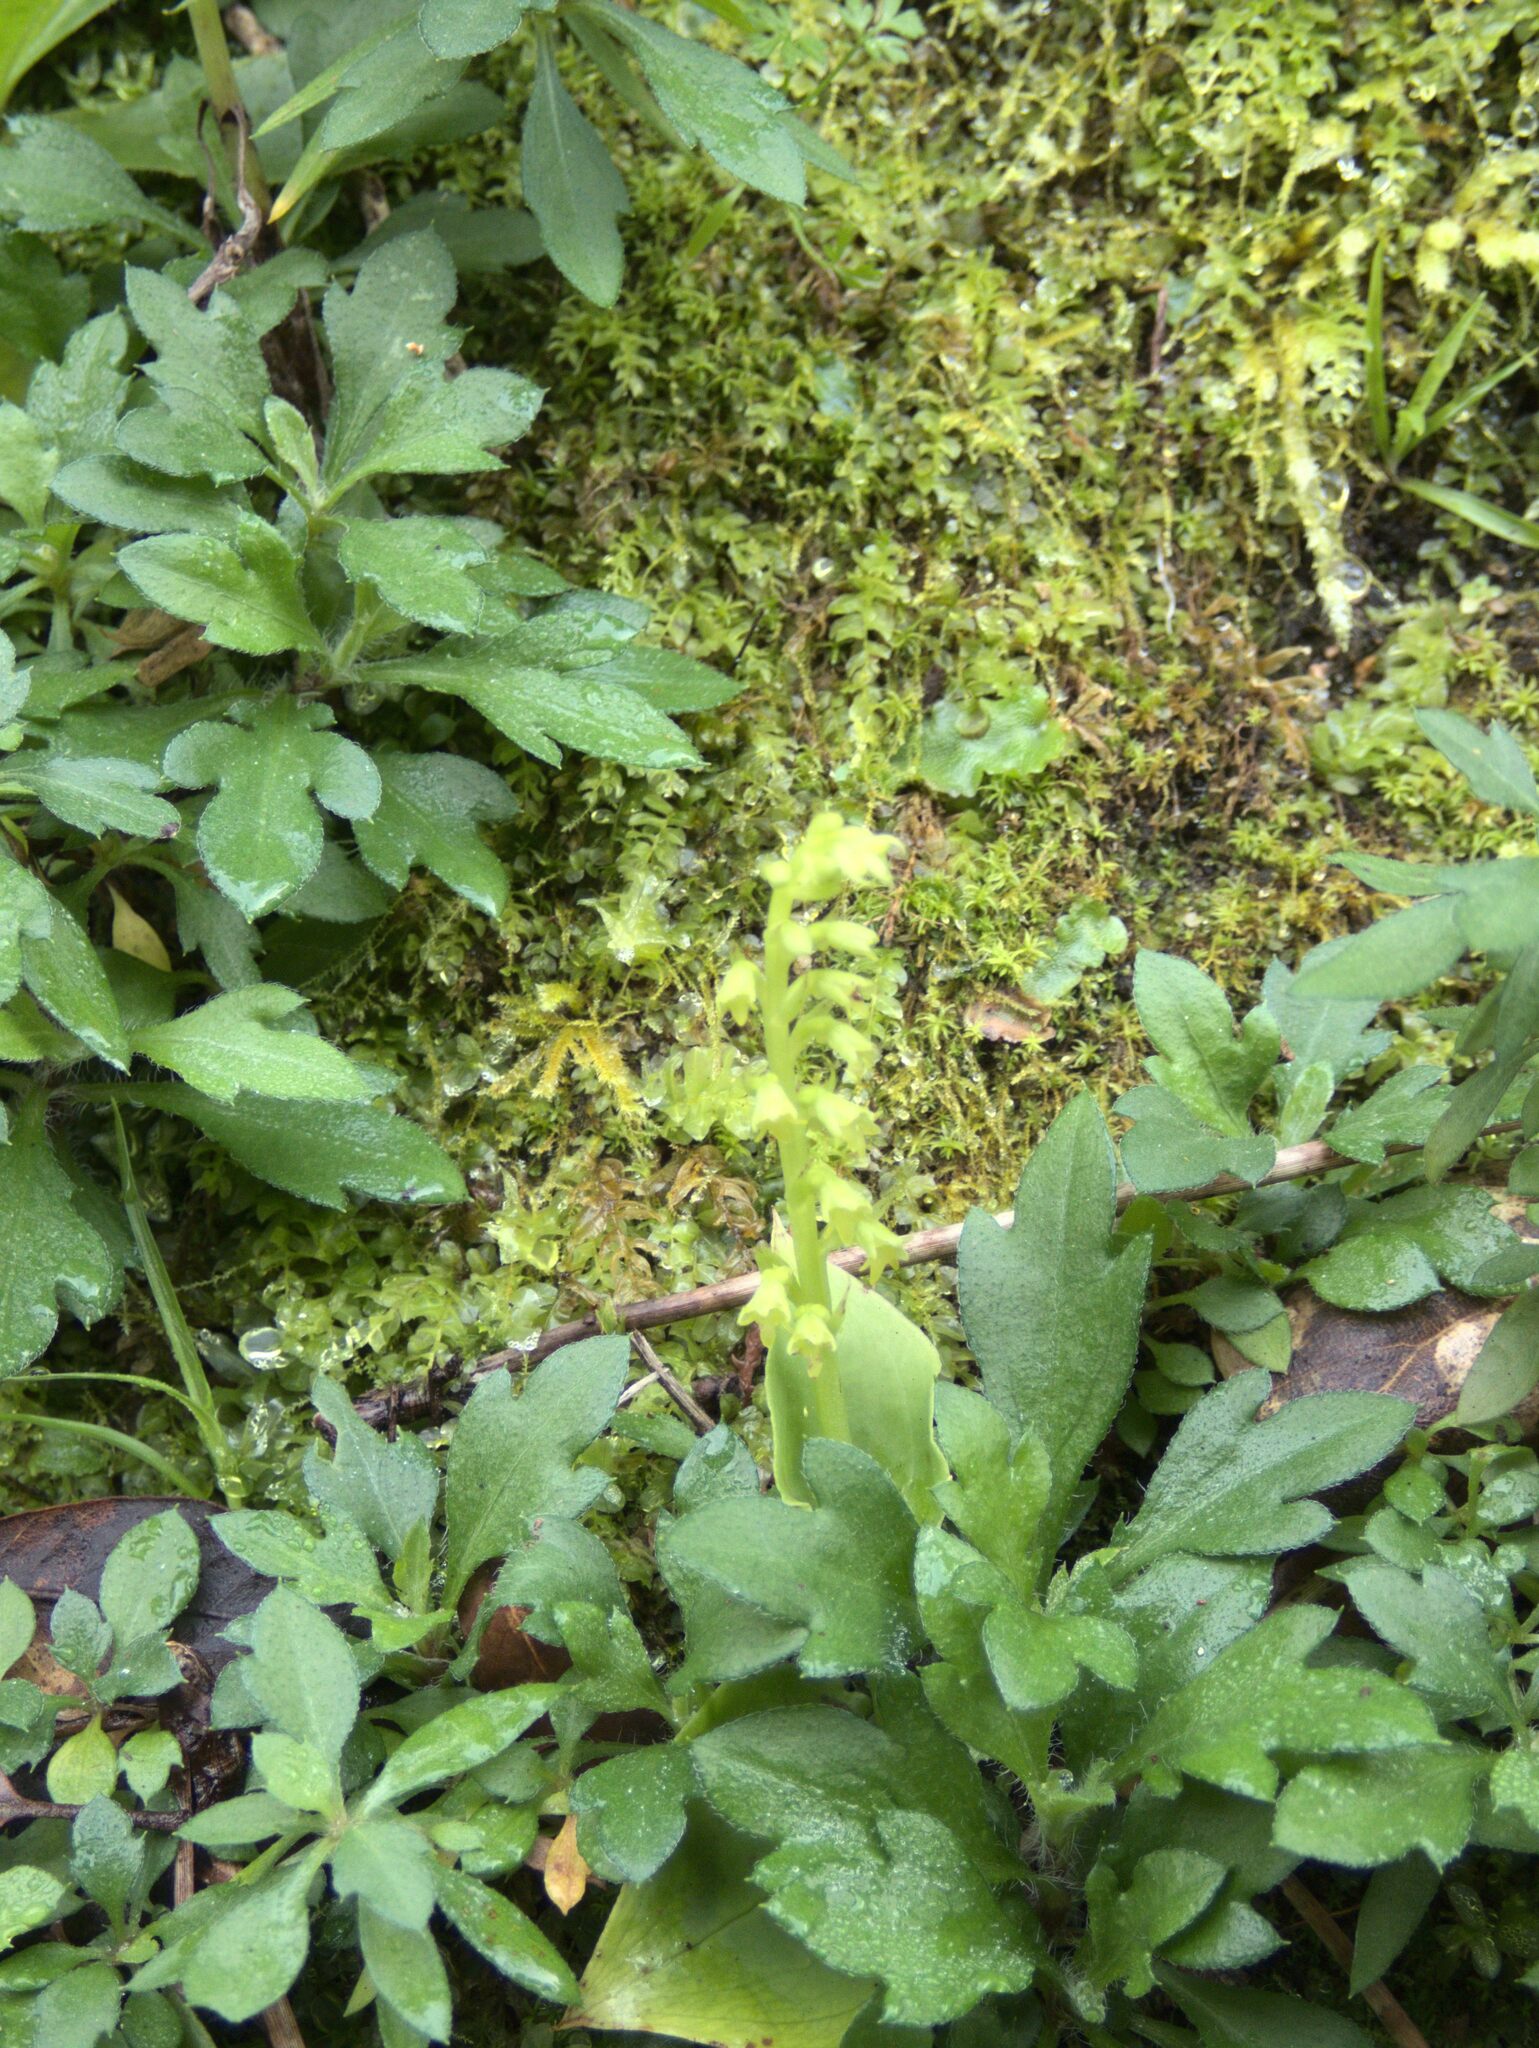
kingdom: Plantae
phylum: Tracheophyta
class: Liliopsida
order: Asparagales
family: Orchidaceae
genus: Gennaria
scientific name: Gennaria diphylla
